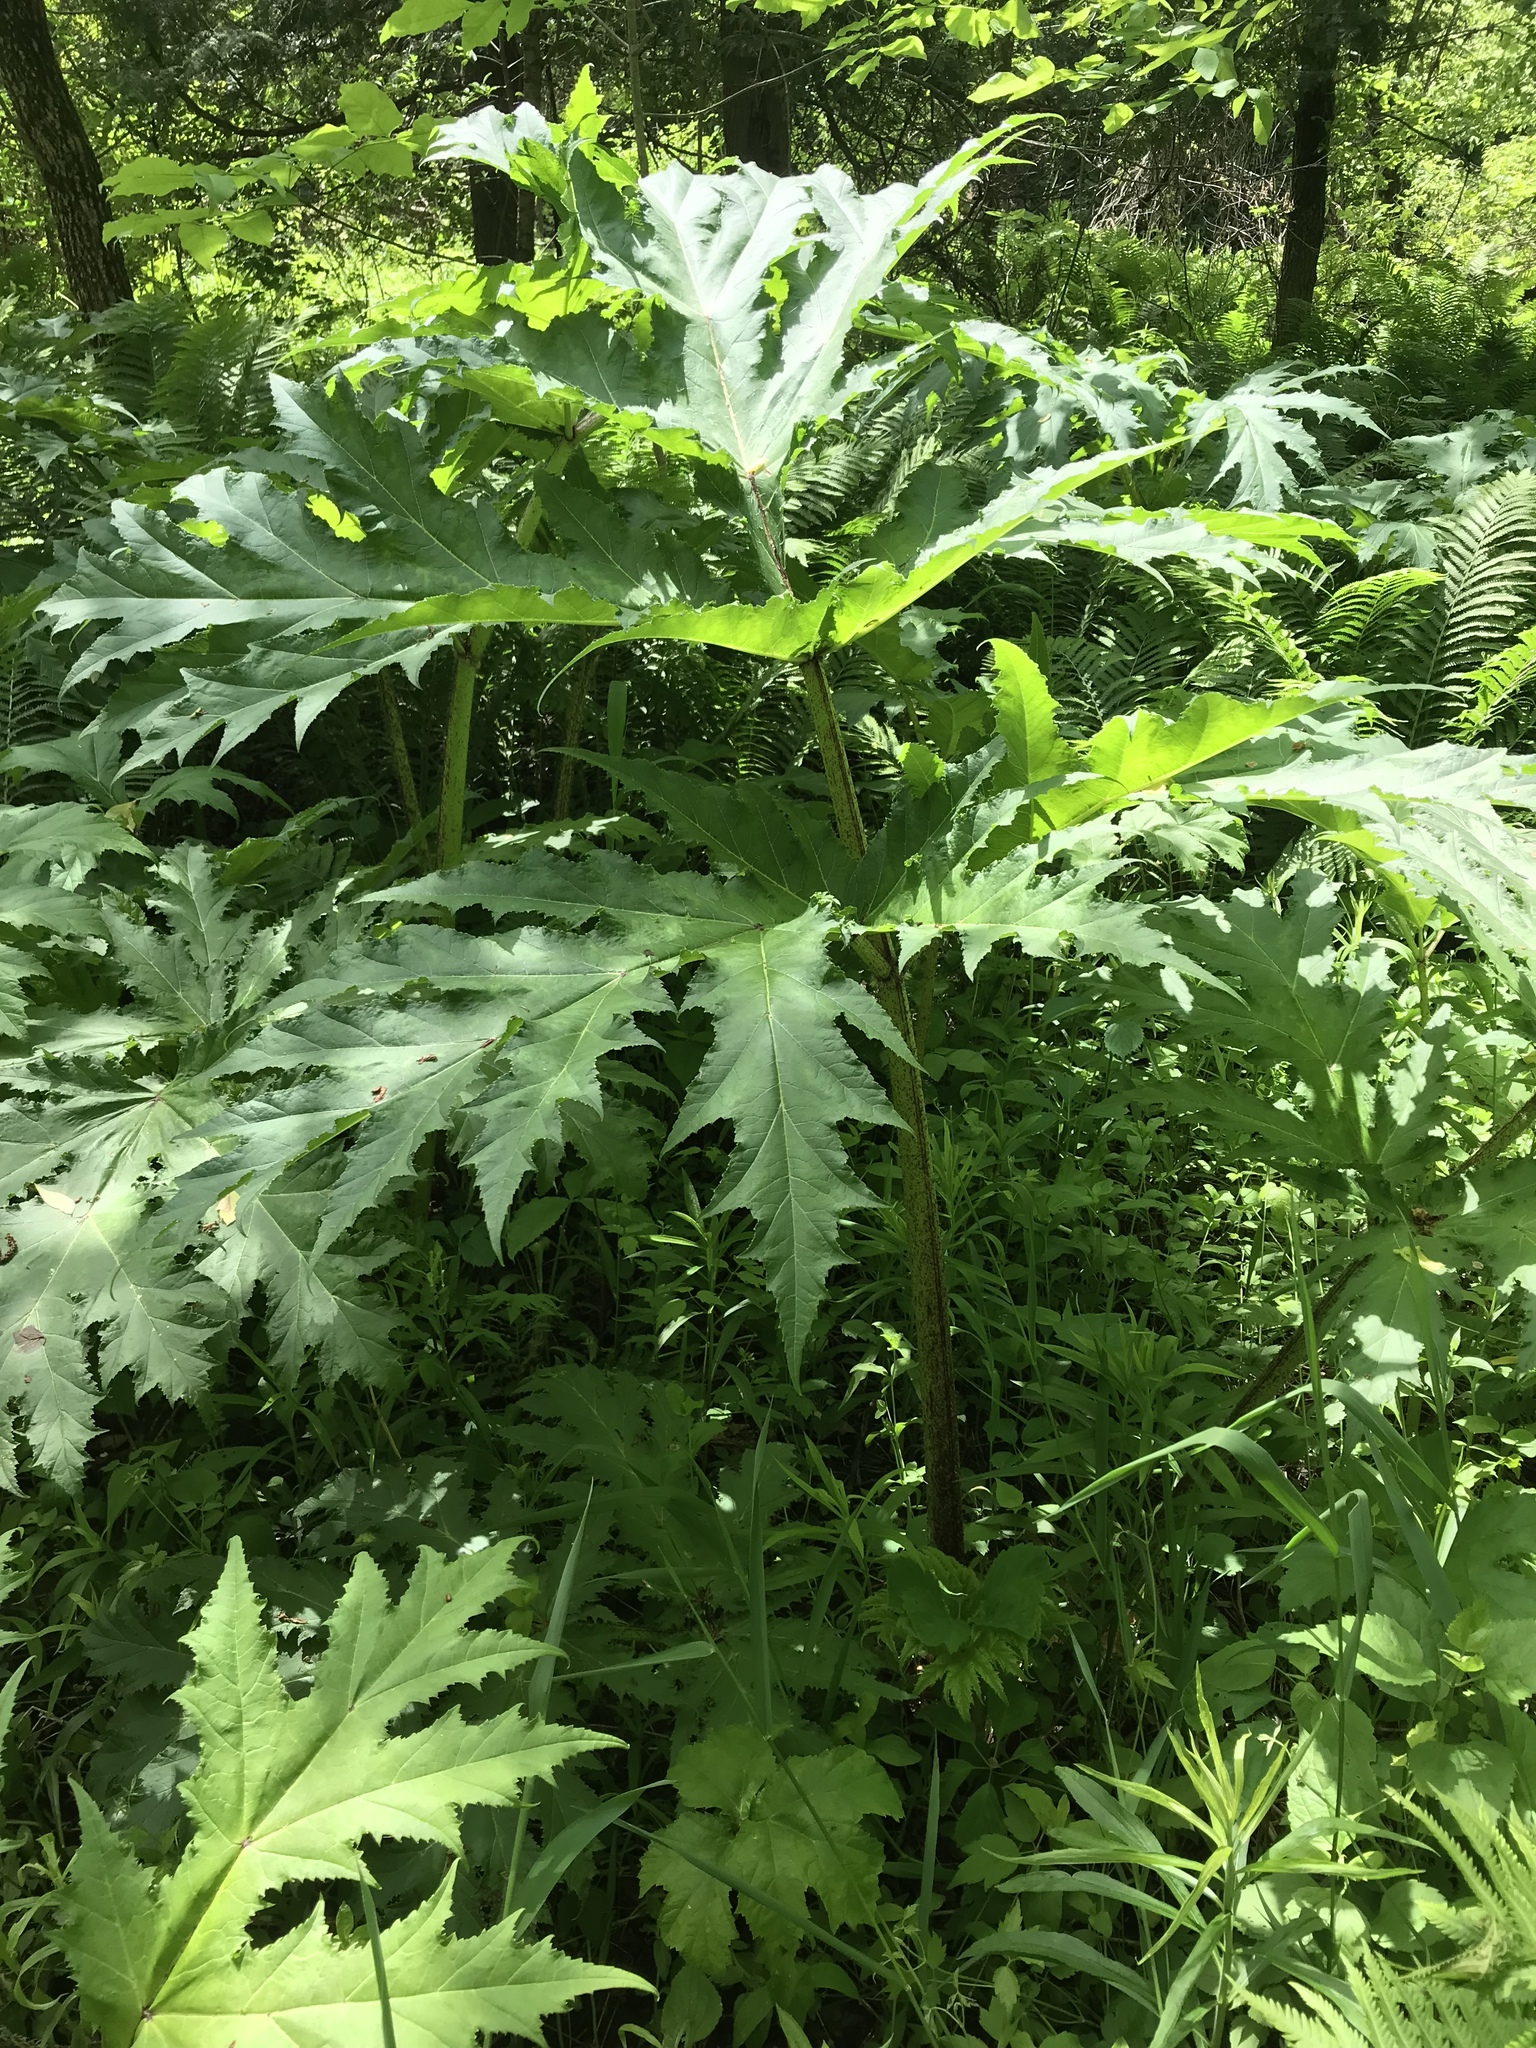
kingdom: Plantae
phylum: Tracheophyta
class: Magnoliopsida
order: Apiales
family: Apiaceae
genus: Heracleum
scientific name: Heracleum mantegazzianum
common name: Giant hogweed
